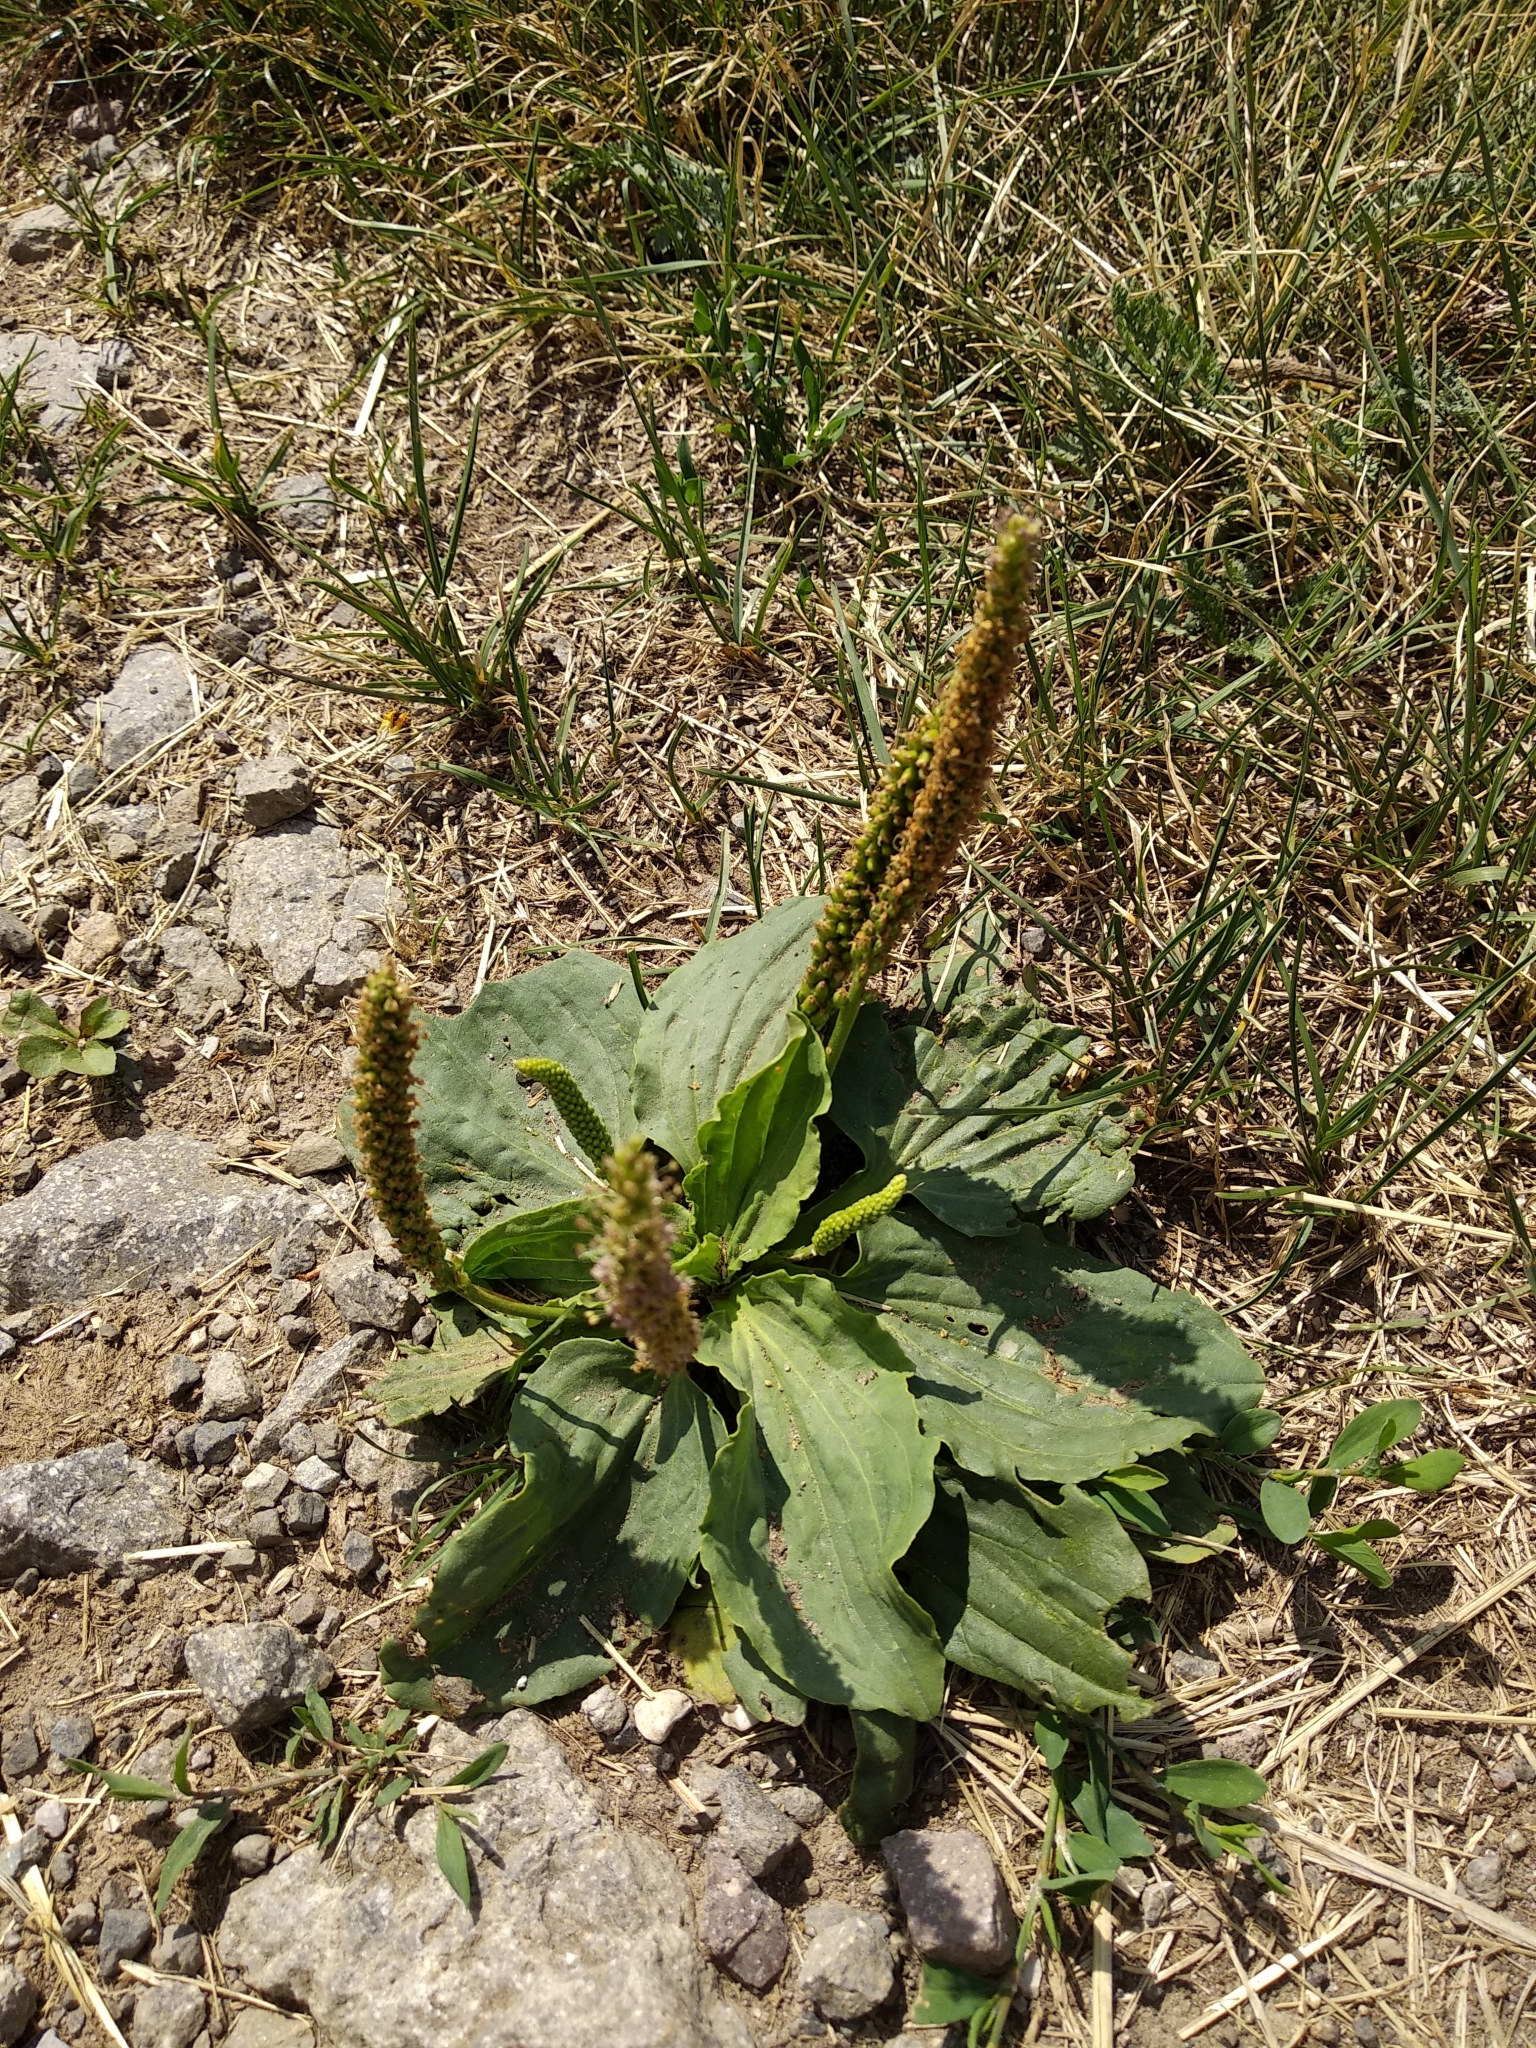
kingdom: Plantae
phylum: Tracheophyta
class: Magnoliopsida
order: Lamiales
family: Plantaginaceae
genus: Plantago
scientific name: Plantago major
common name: Common plantain
